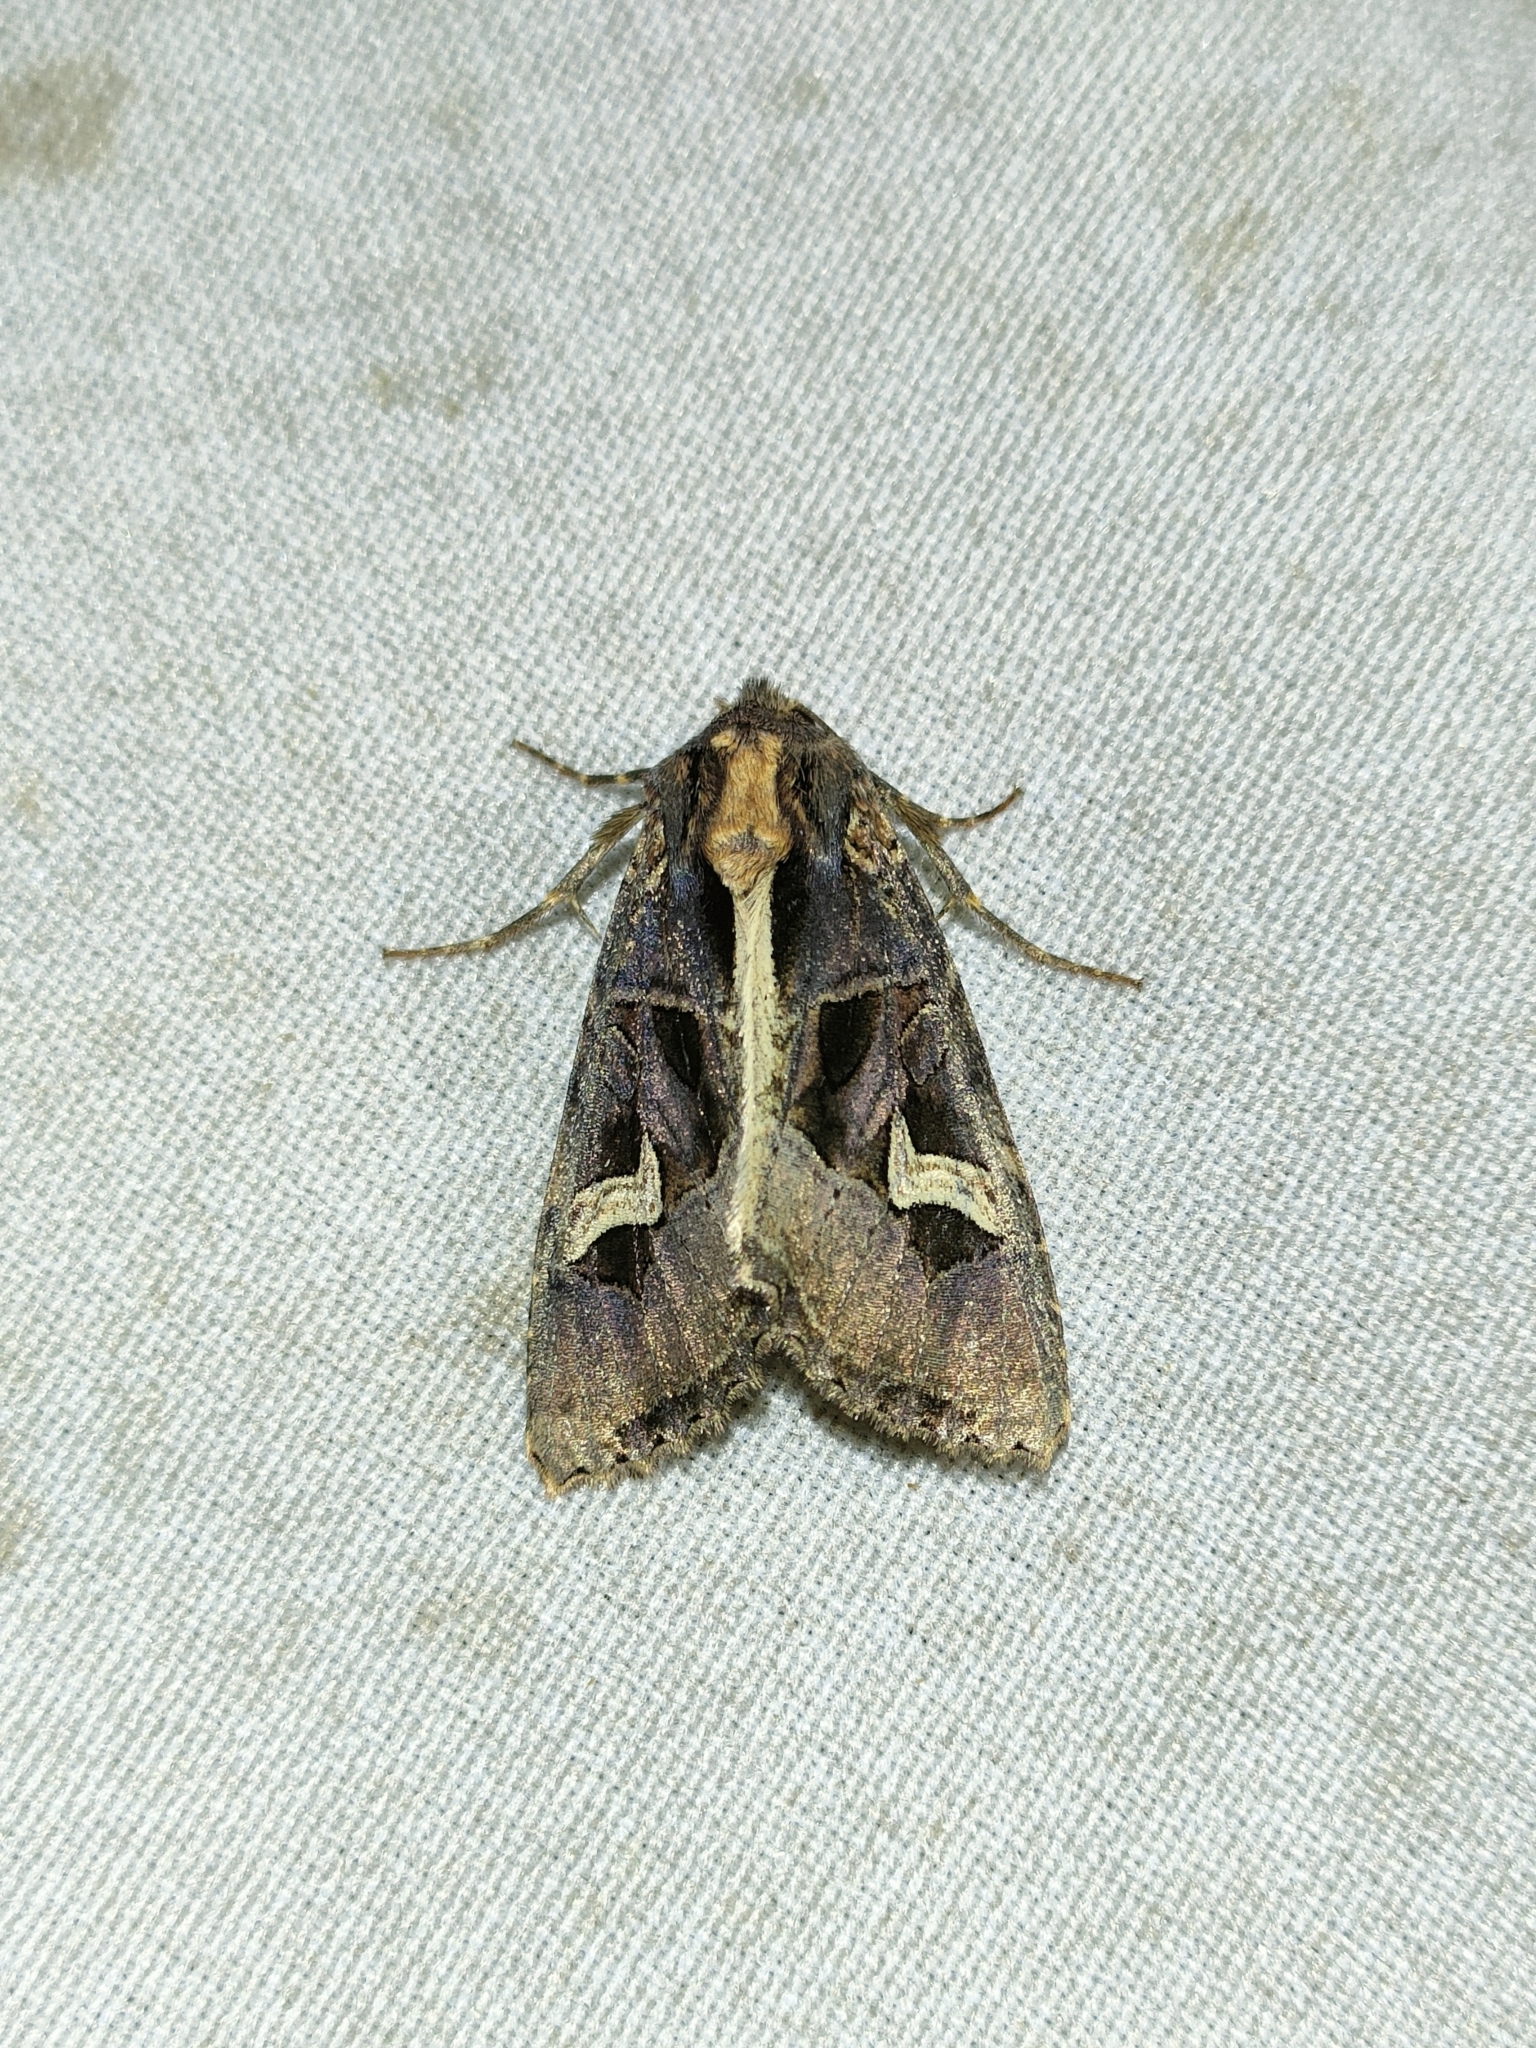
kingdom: Animalia
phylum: Arthropoda
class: Insecta
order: Lepidoptera
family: Noctuidae
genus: Trigonophora
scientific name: Trigonophora flammea
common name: Flame brocade
